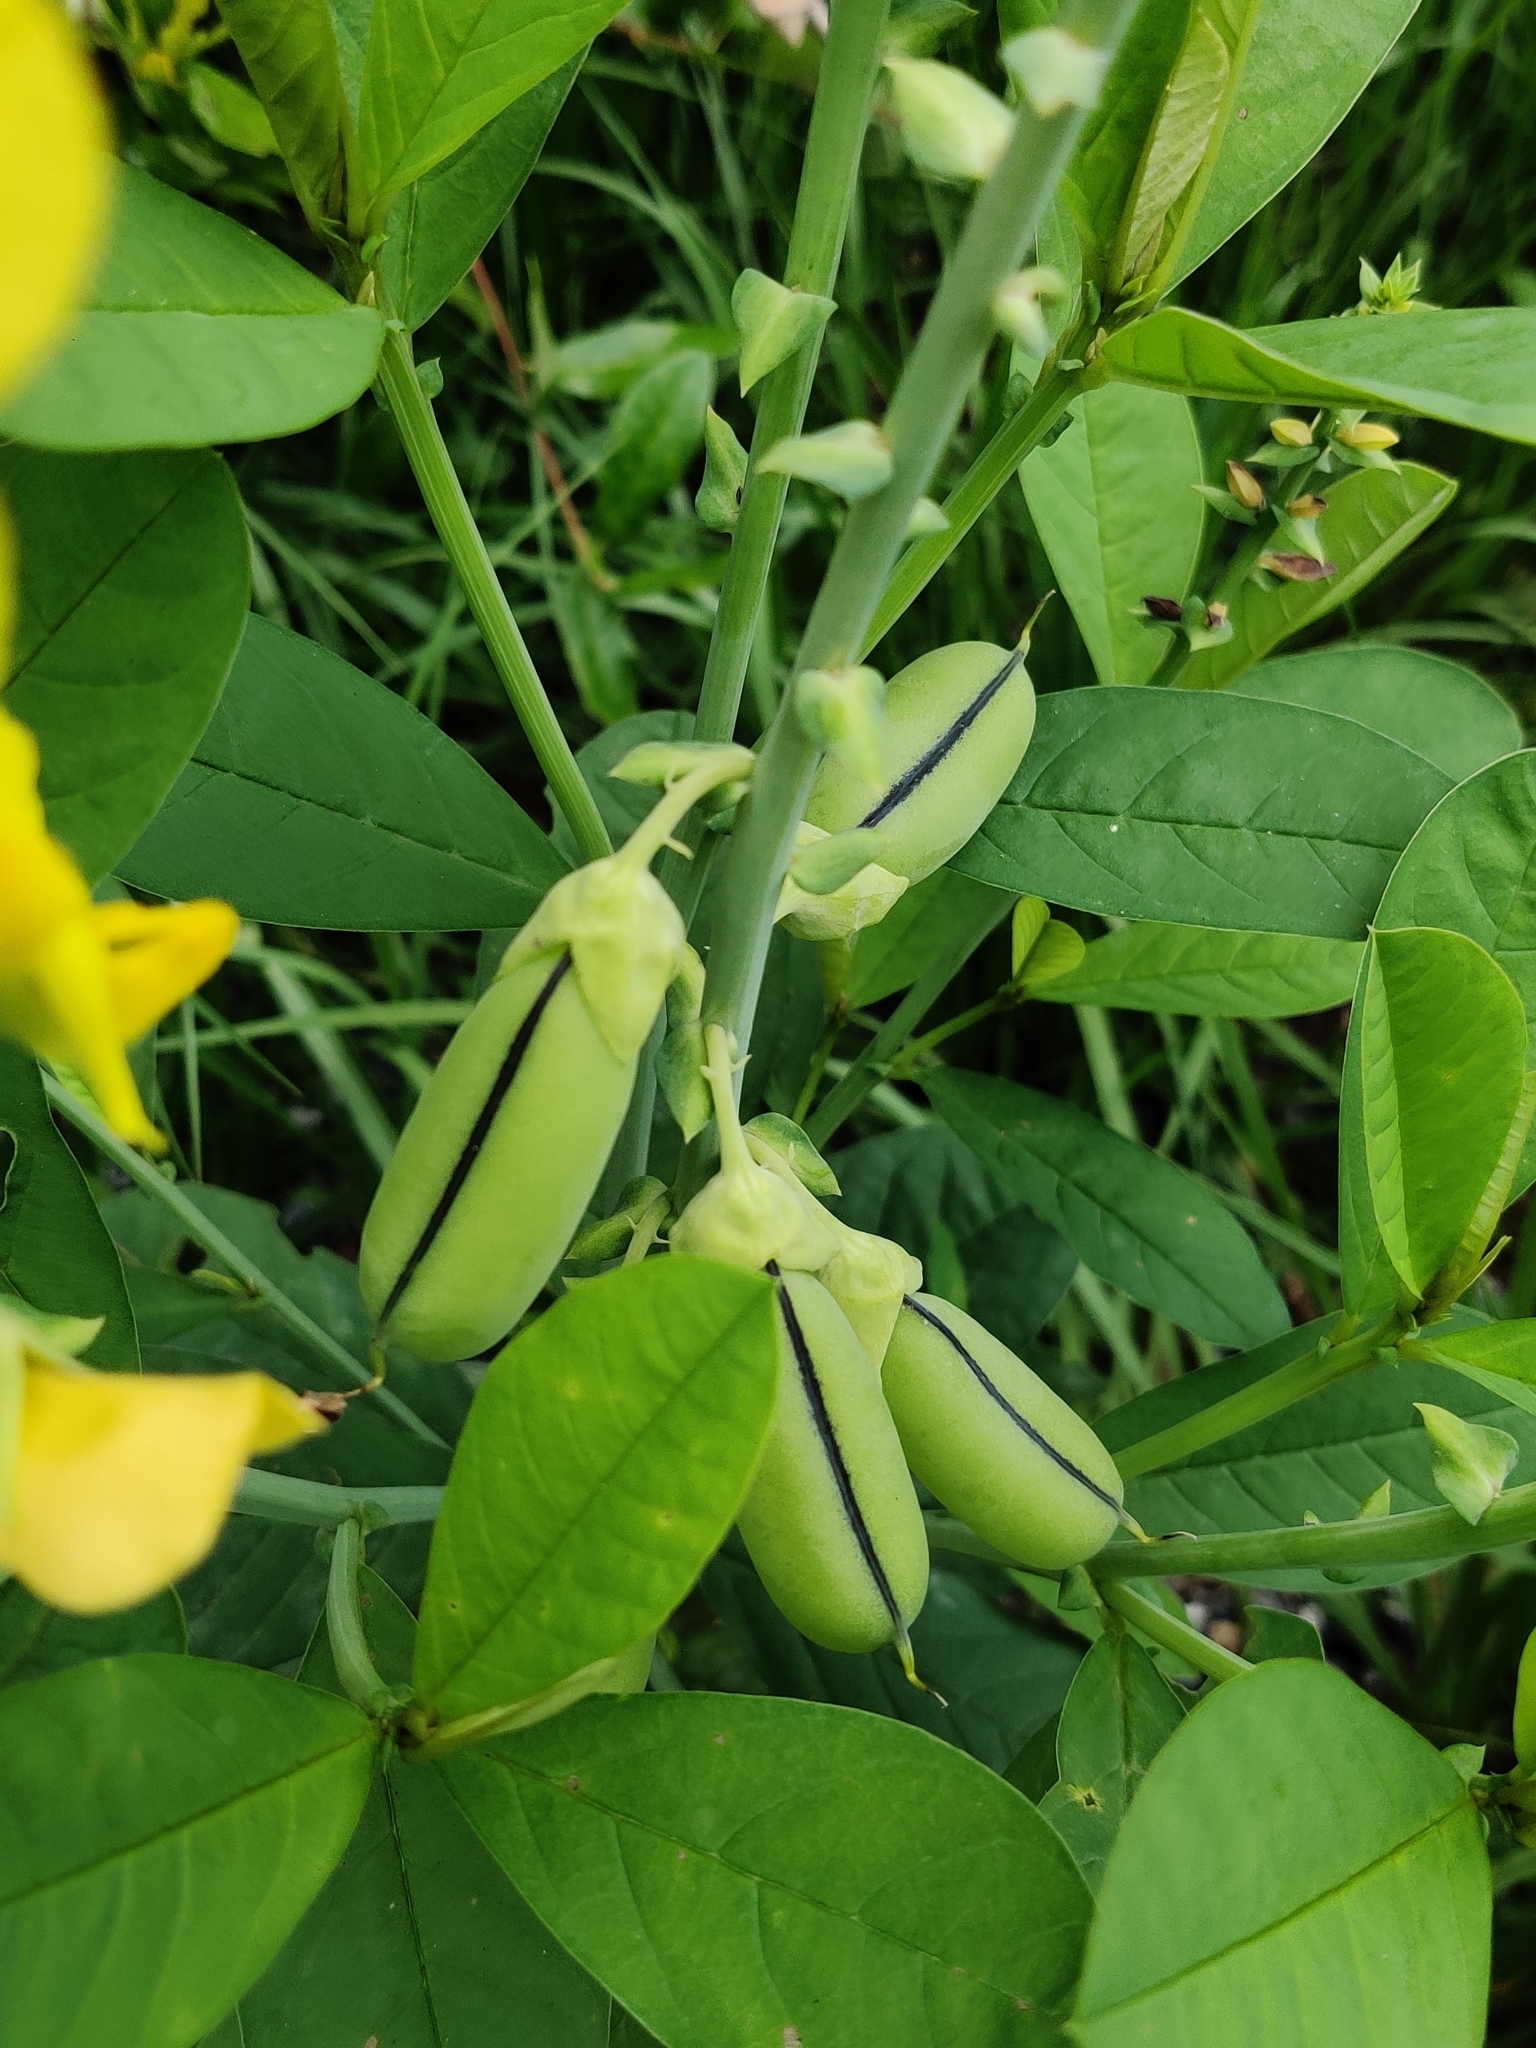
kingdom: Plantae
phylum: Tracheophyta
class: Magnoliopsida
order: Fabales
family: Fabaceae
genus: Crotalaria
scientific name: Crotalaria spectabilis
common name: Showy rattlebox
